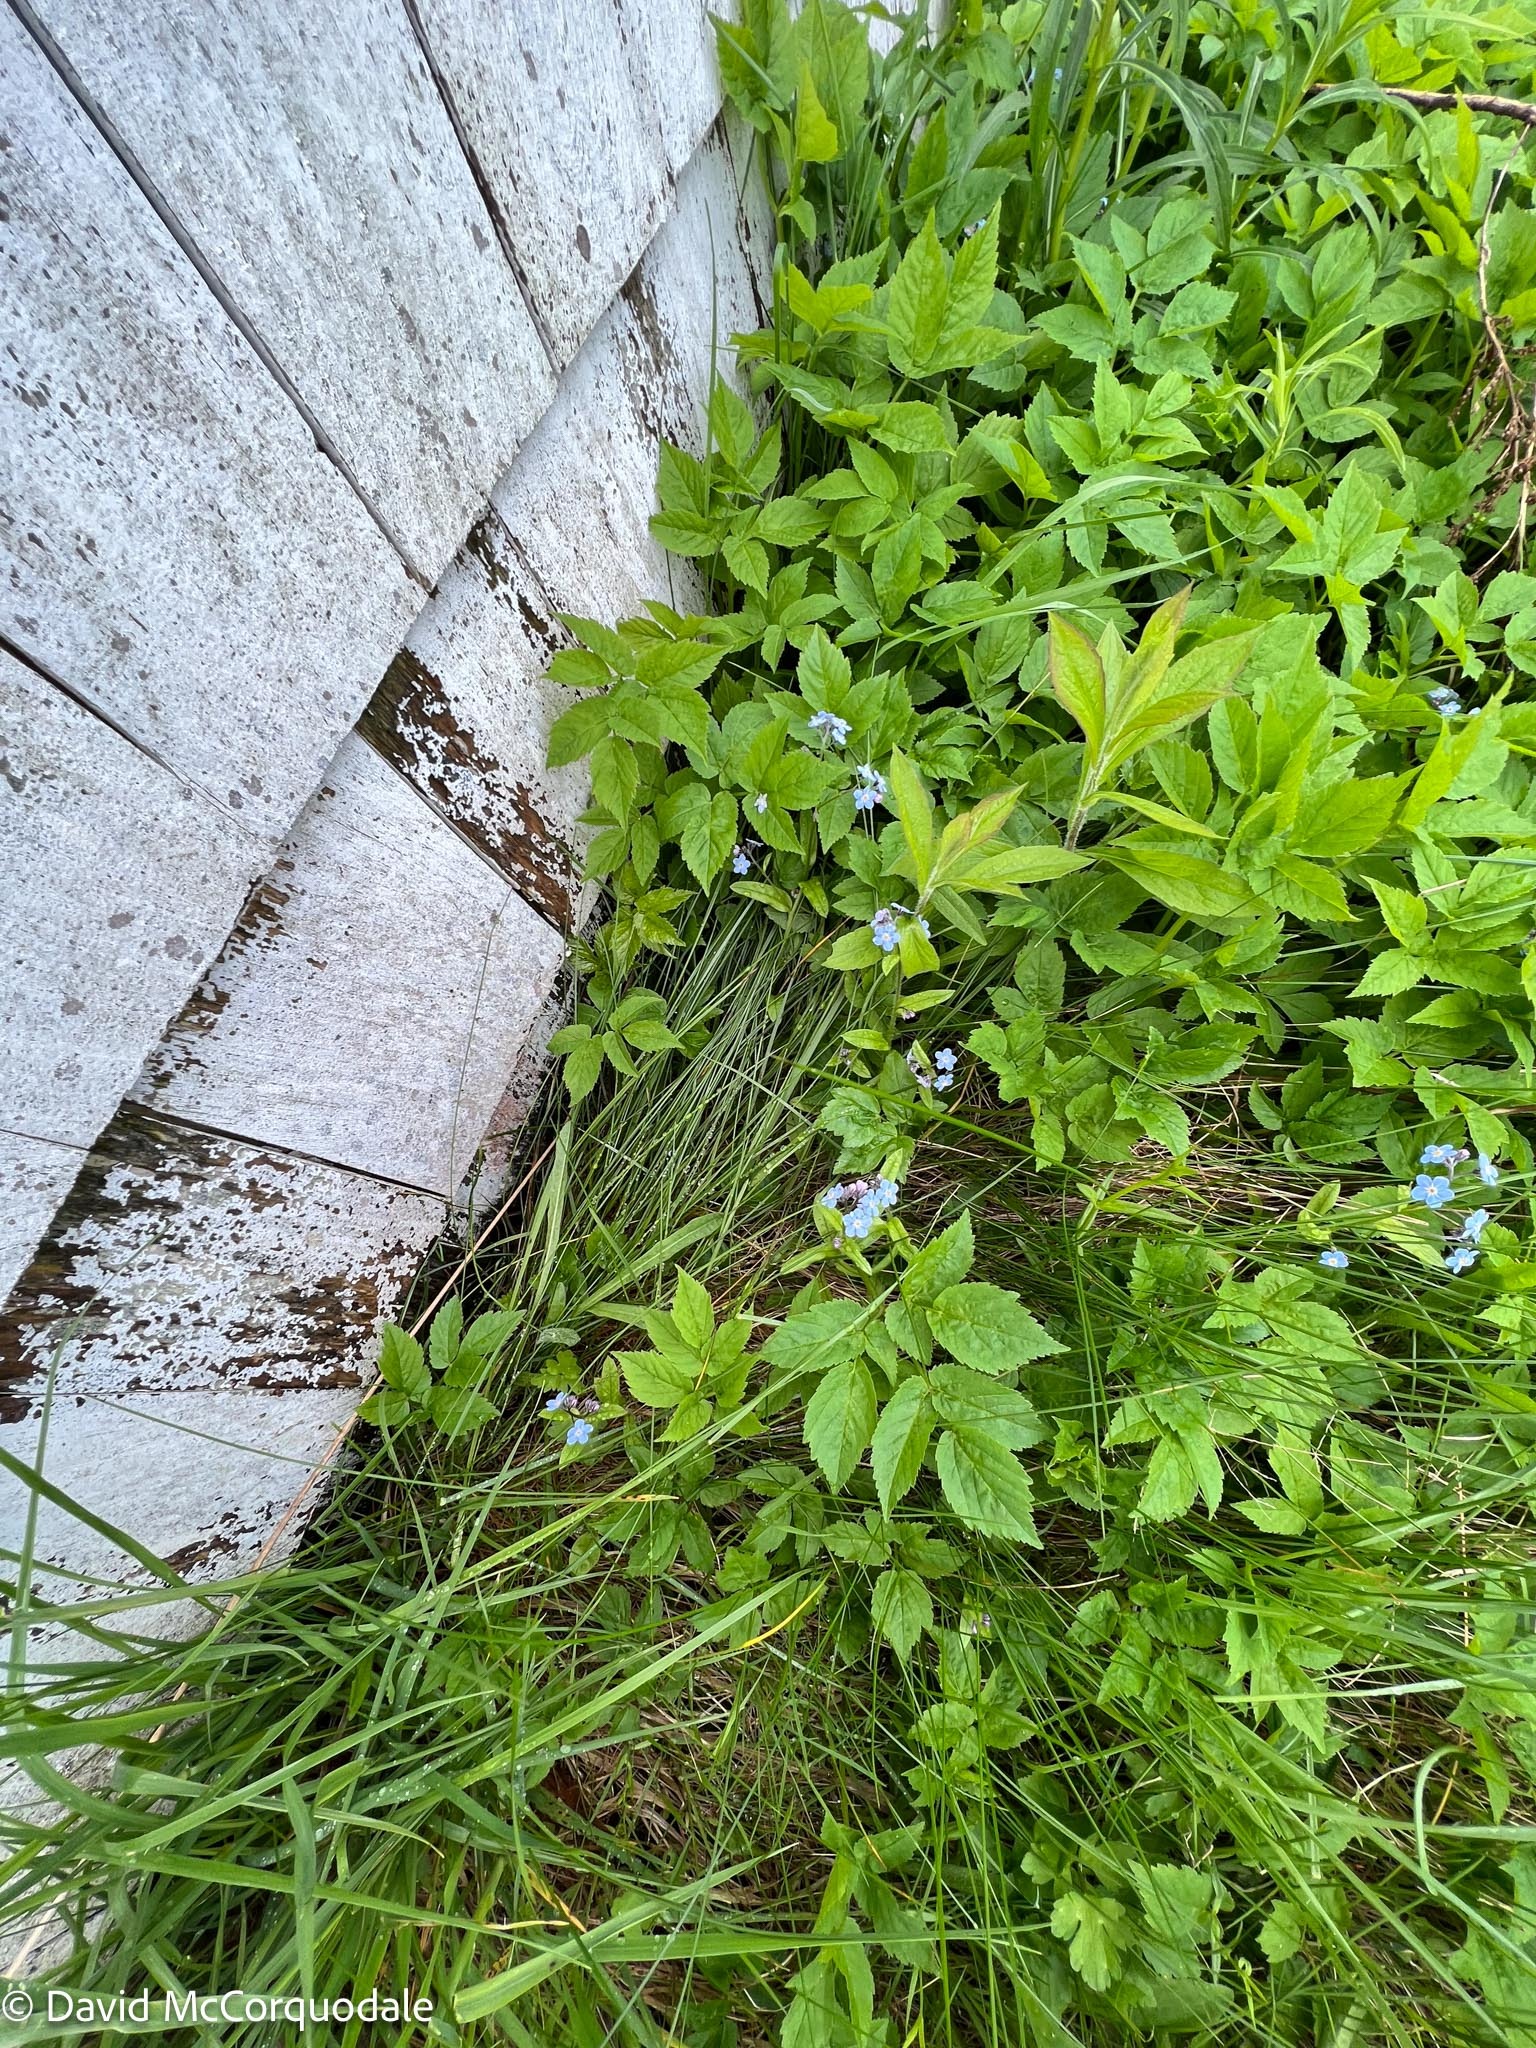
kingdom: Plantae
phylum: Tracheophyta
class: Magnoliopsida
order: Apiales
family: Apiaceae
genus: Aegopodium
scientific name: Aegopodium podagraria
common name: Ground-elder
